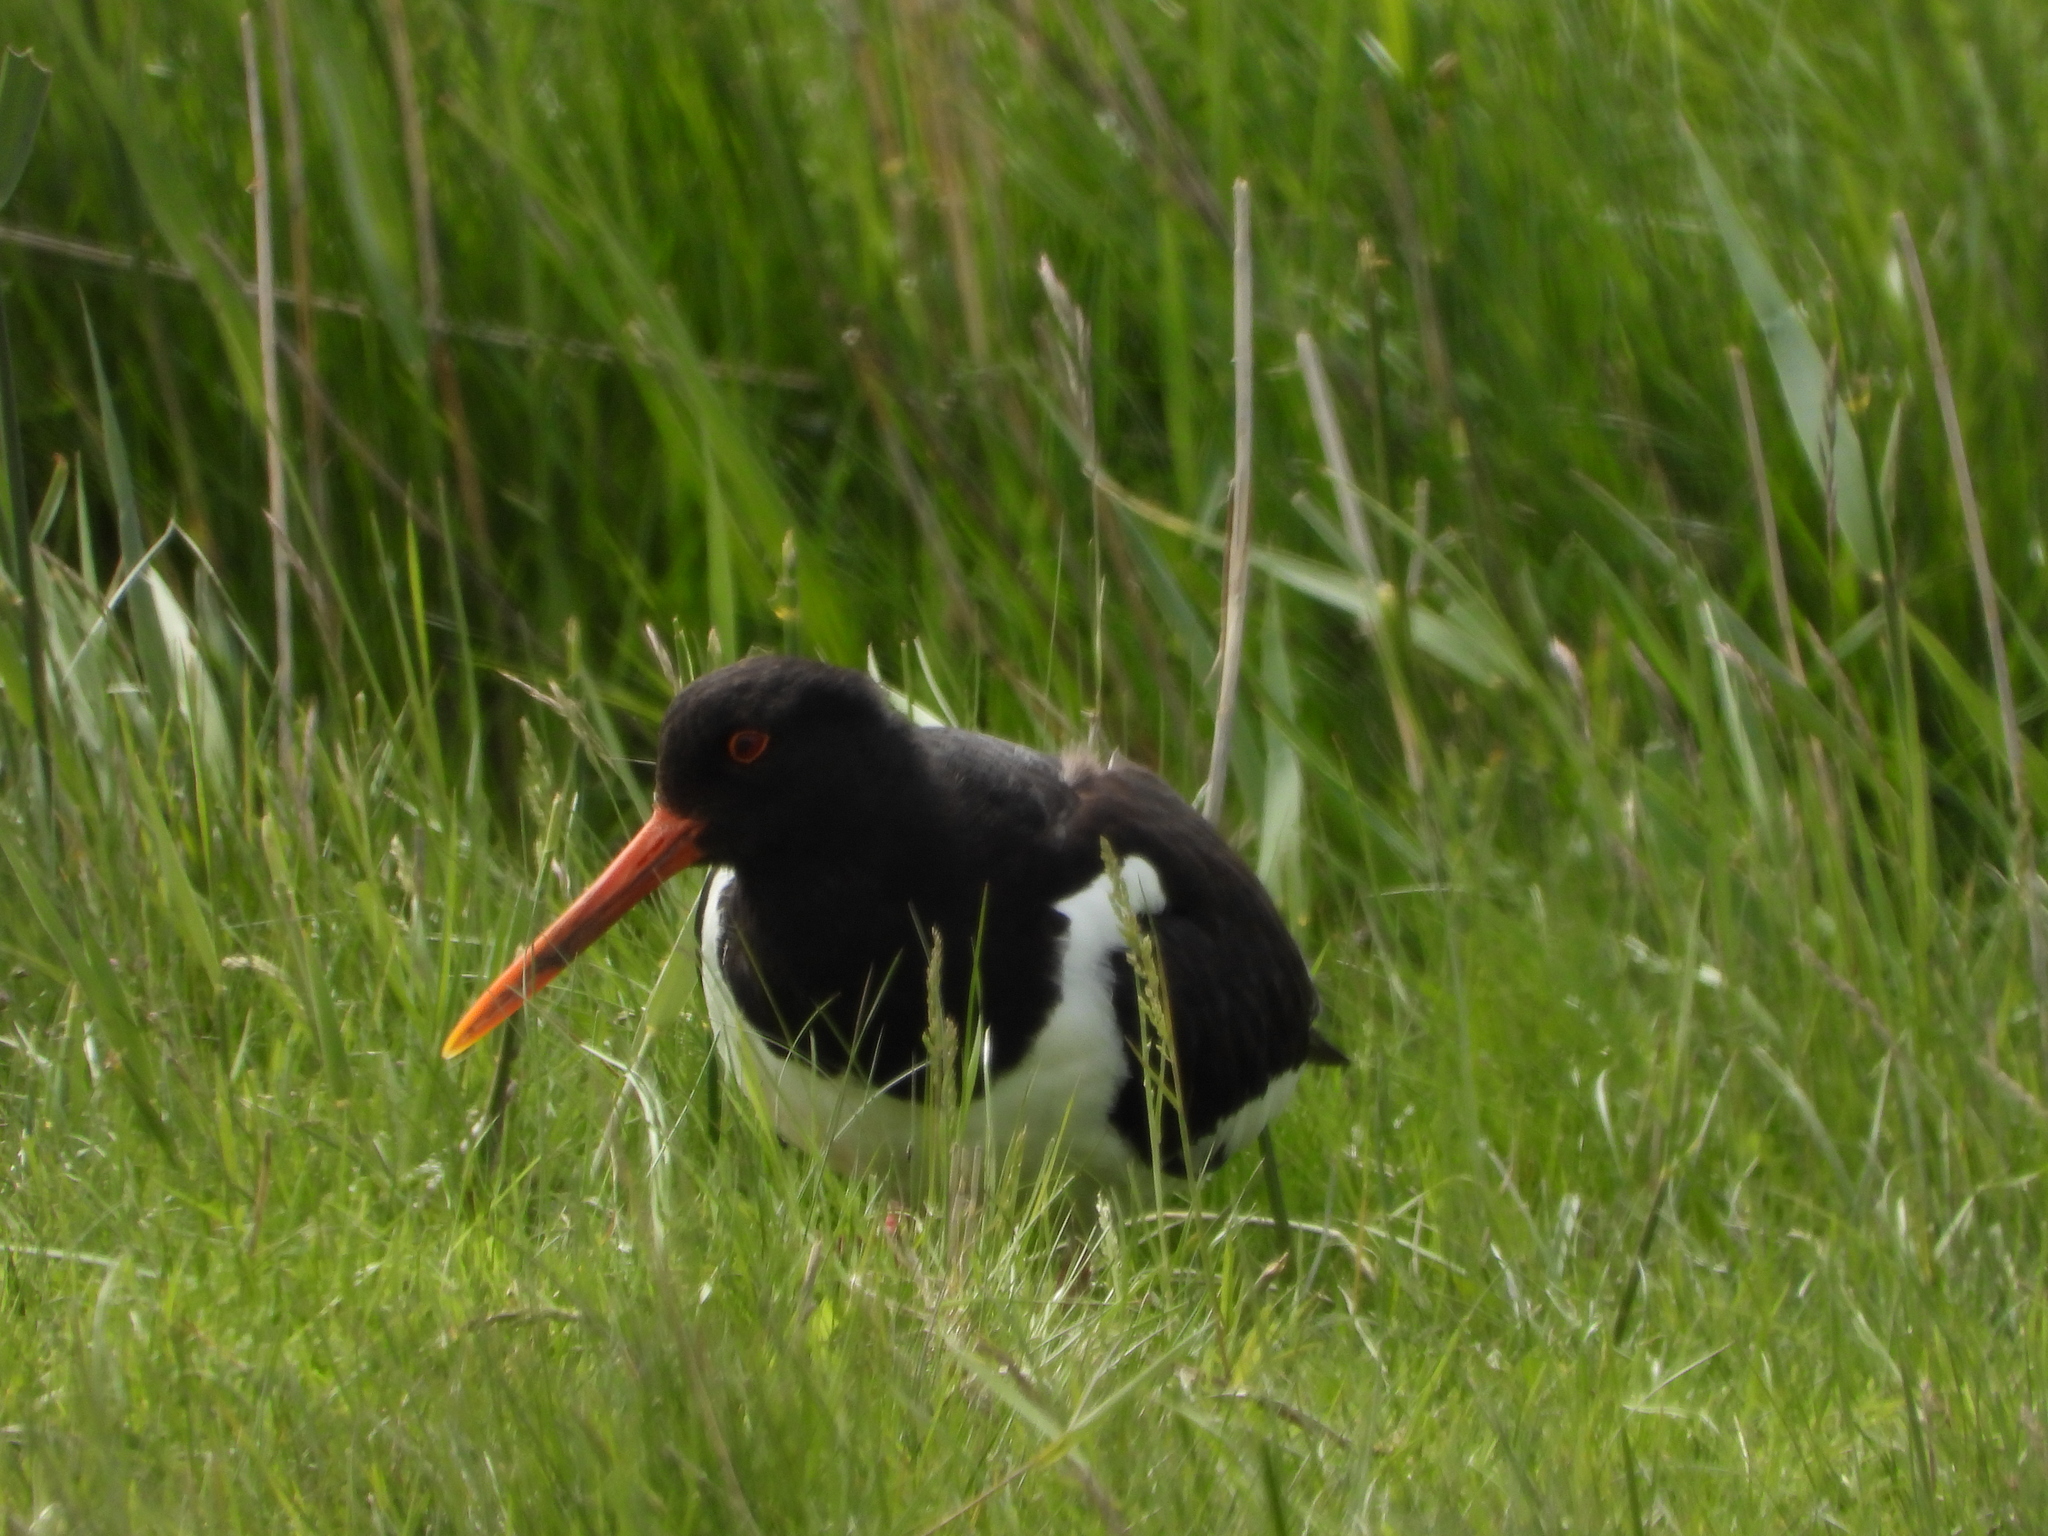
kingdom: Animalia
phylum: Chordata
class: Aves
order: Charadriiformes
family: Haematopodidae
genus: Haematopus
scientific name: Haematopus ostralegus
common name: Eurasian oystercatcher
